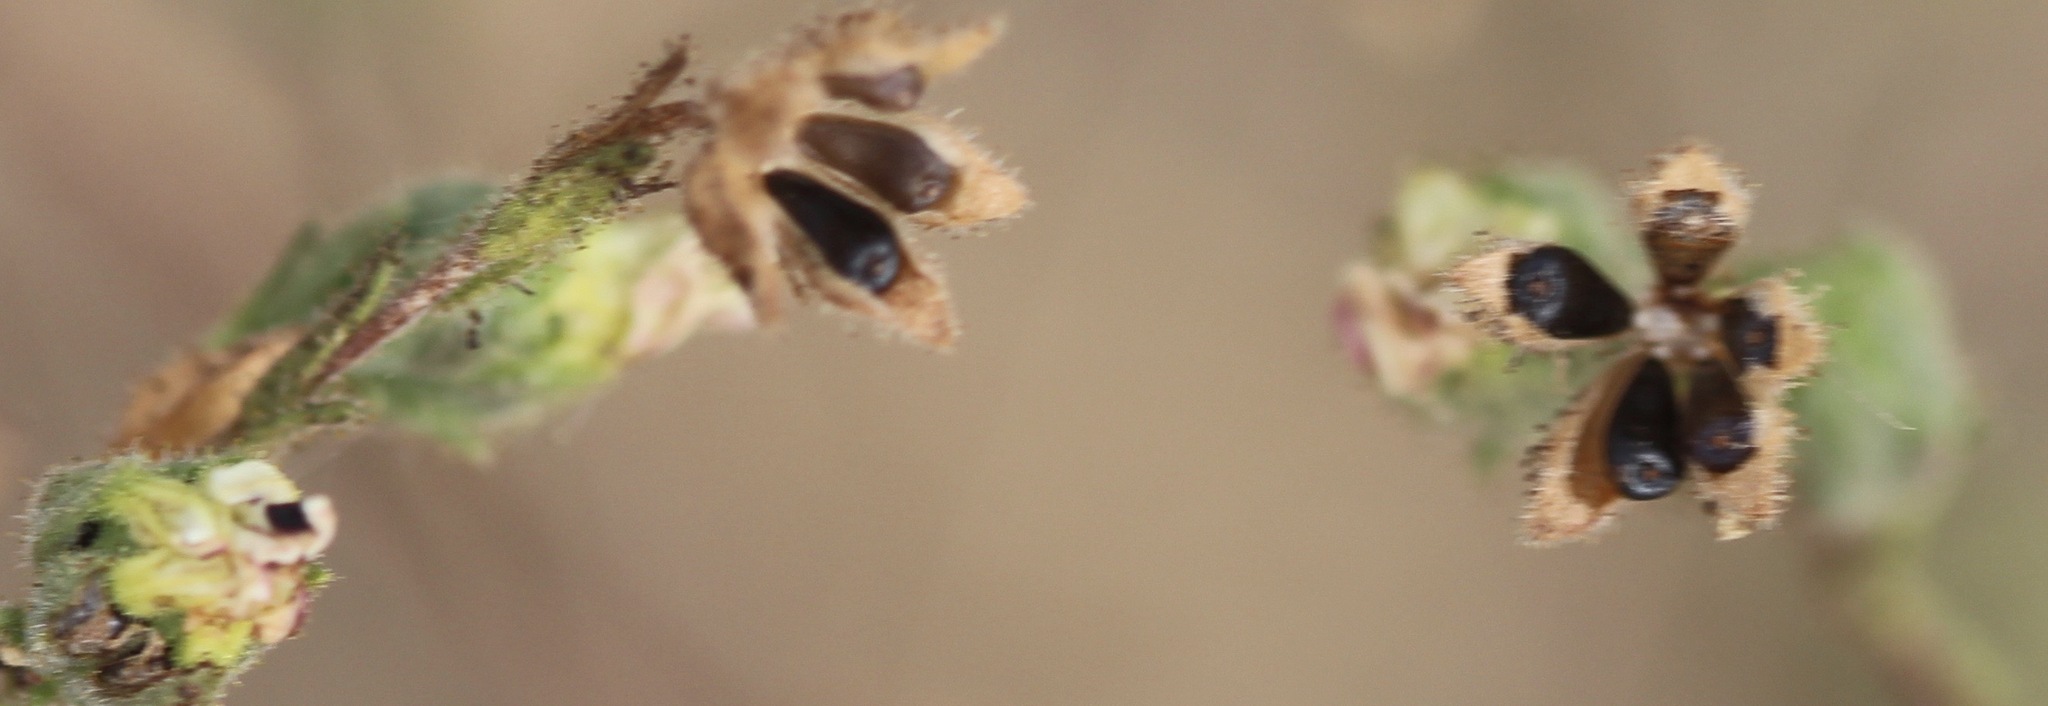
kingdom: Plantae
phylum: Tracheophyta
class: Magnoliopsida
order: Asterales
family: Asteraceae
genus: Hemizonia
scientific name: Hemizonia congesta
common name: Hayfield tarweed
